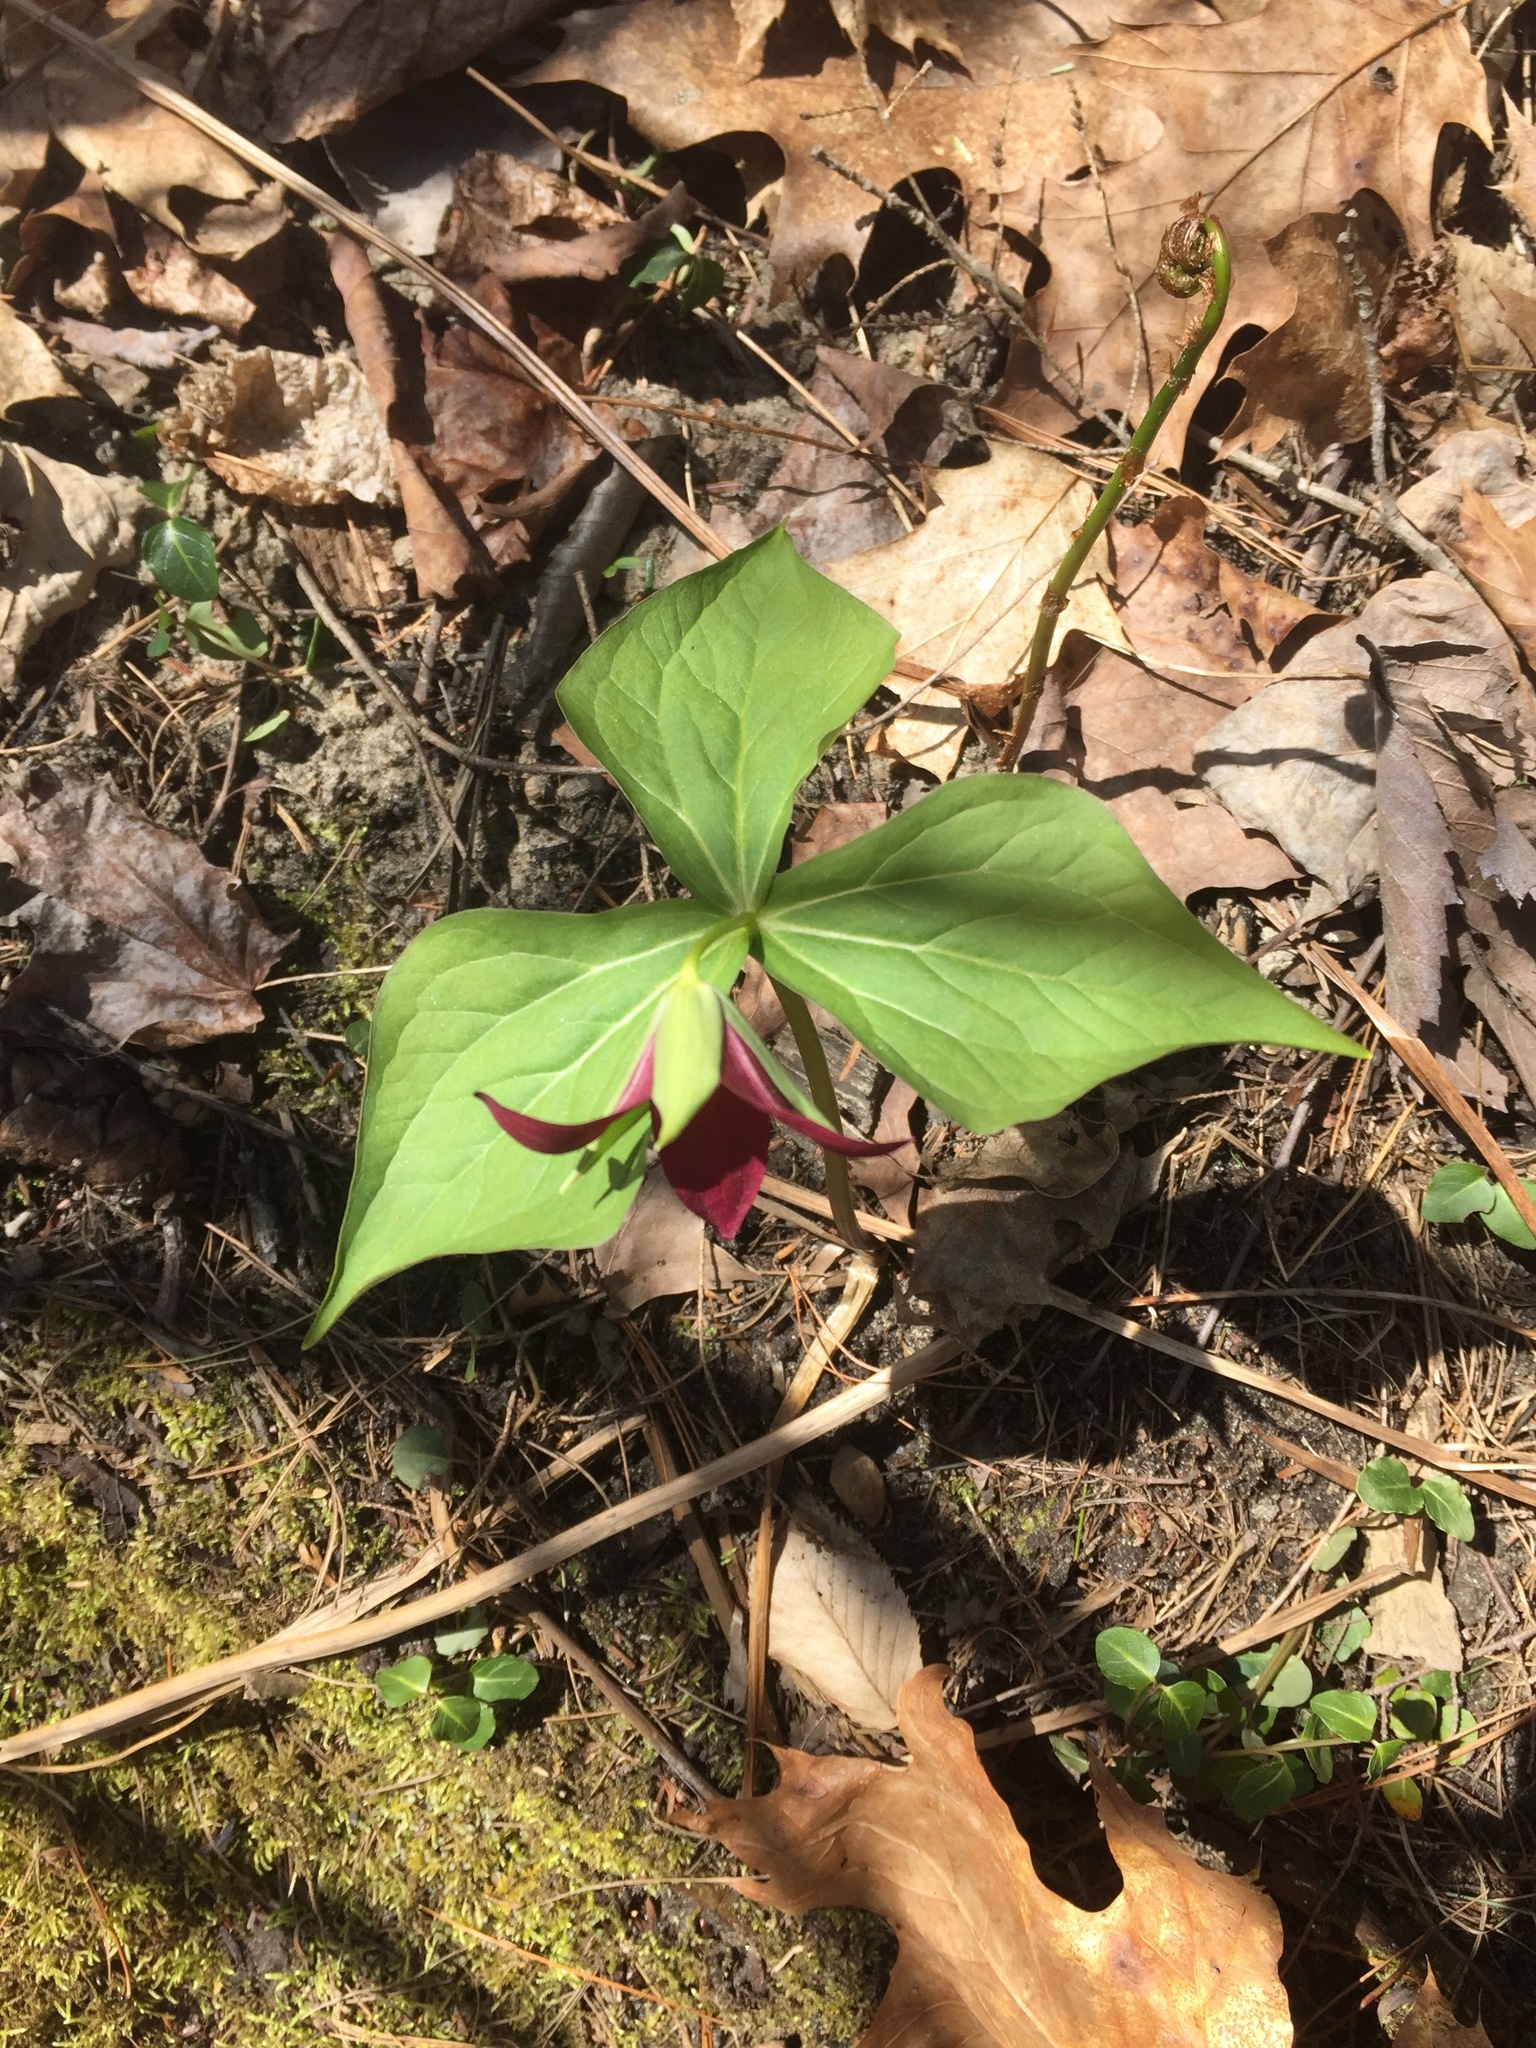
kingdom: Plantae
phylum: Tracheophyta
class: Liliopsida
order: Liliales
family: Melanthiaceae
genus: Trillium
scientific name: Trillium erectum
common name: Purple trillium
